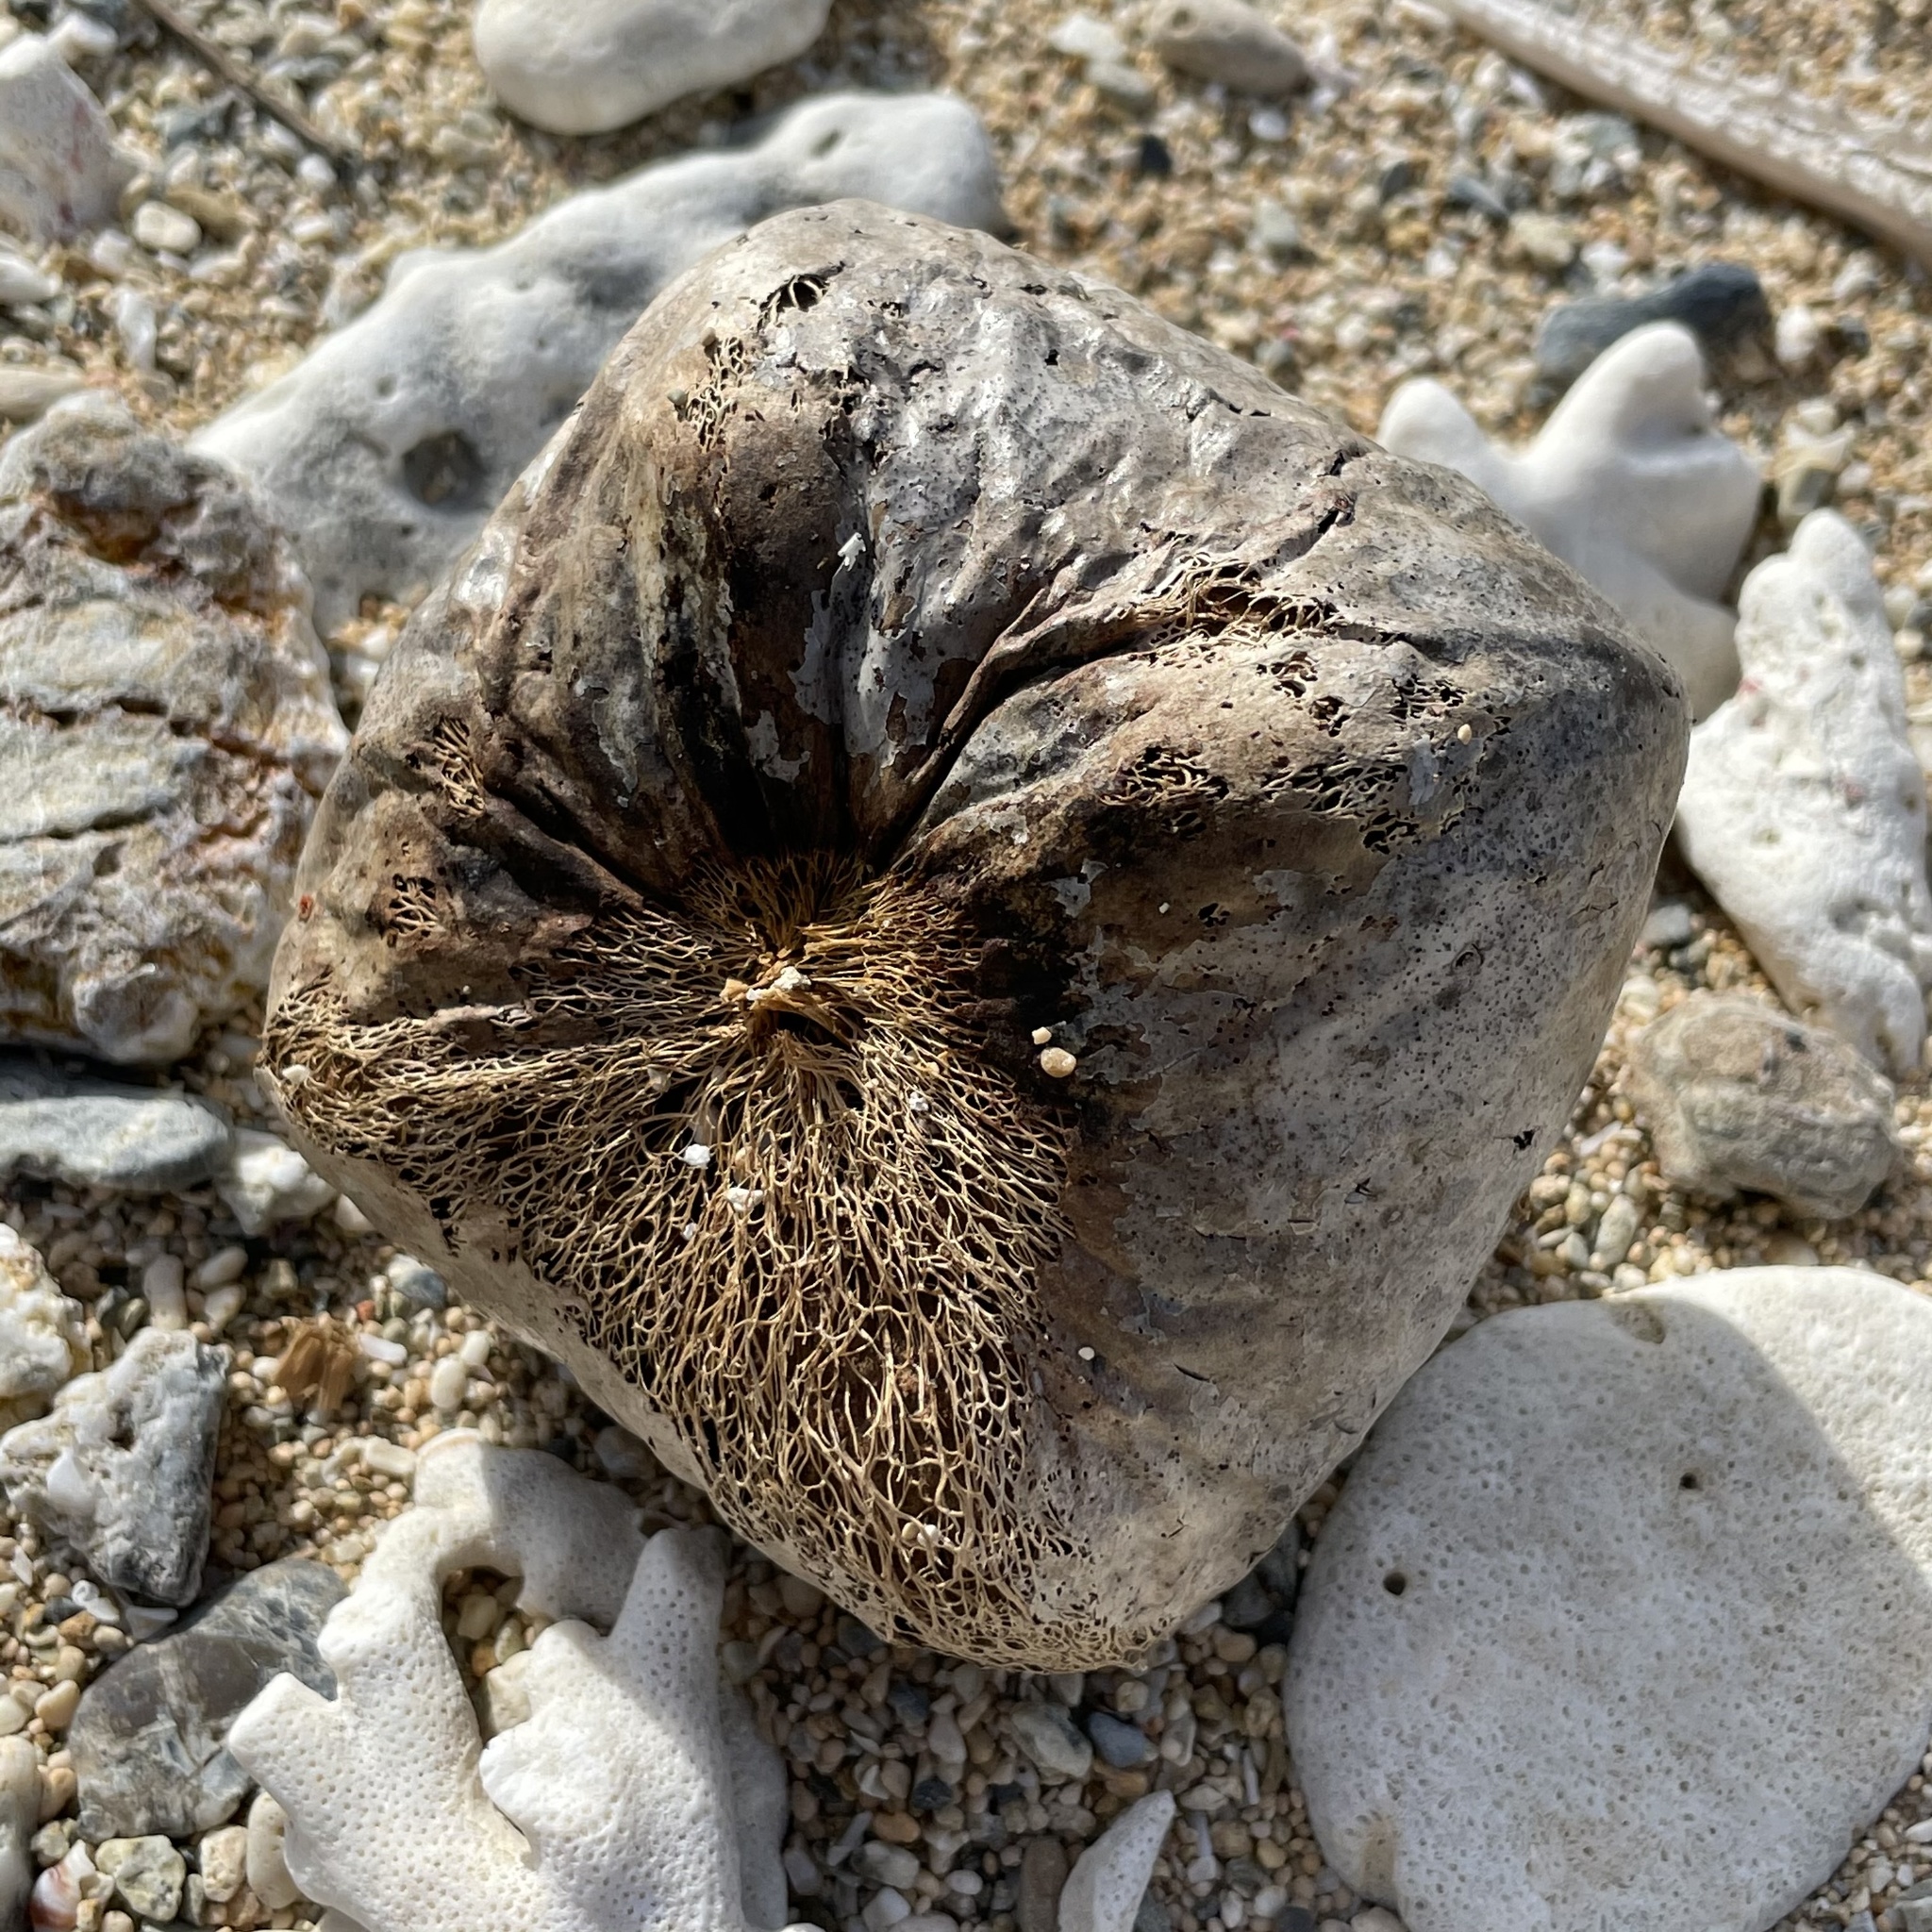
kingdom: Plantae
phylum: Tracheophyta
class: Magnoliopsida
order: Ericales
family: Lecythidaceae
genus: Barringtonia
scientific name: Barringtonia asiatica
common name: Mango-pine
